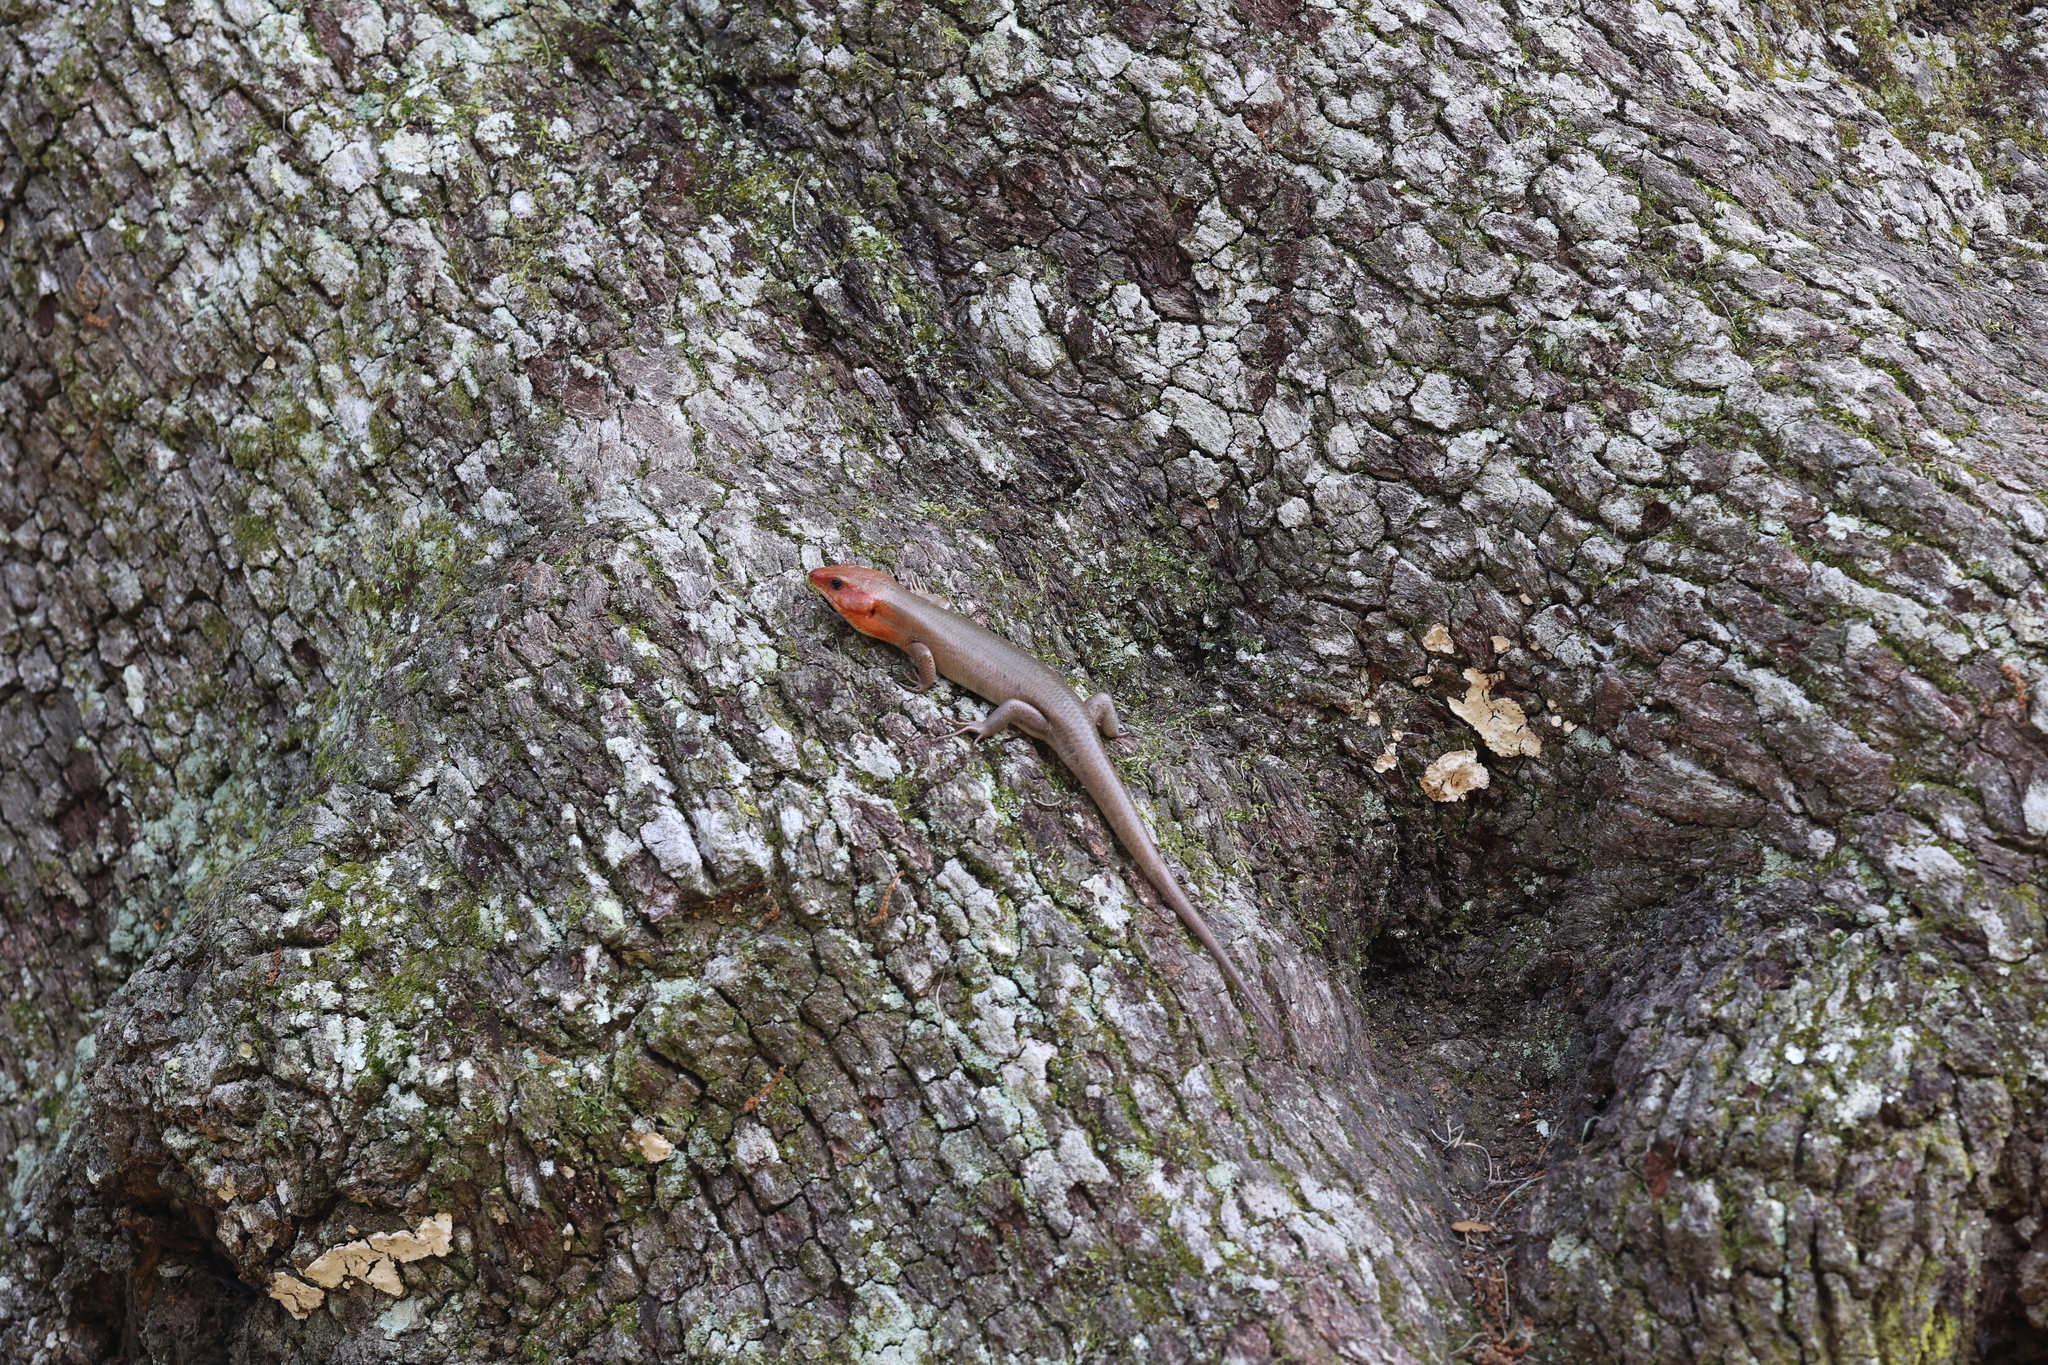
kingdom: Animalia
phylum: Chordata
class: Squamata
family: Scincidae
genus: Plestiodon
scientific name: Plestiodon laticeps
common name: Broadhead skink
